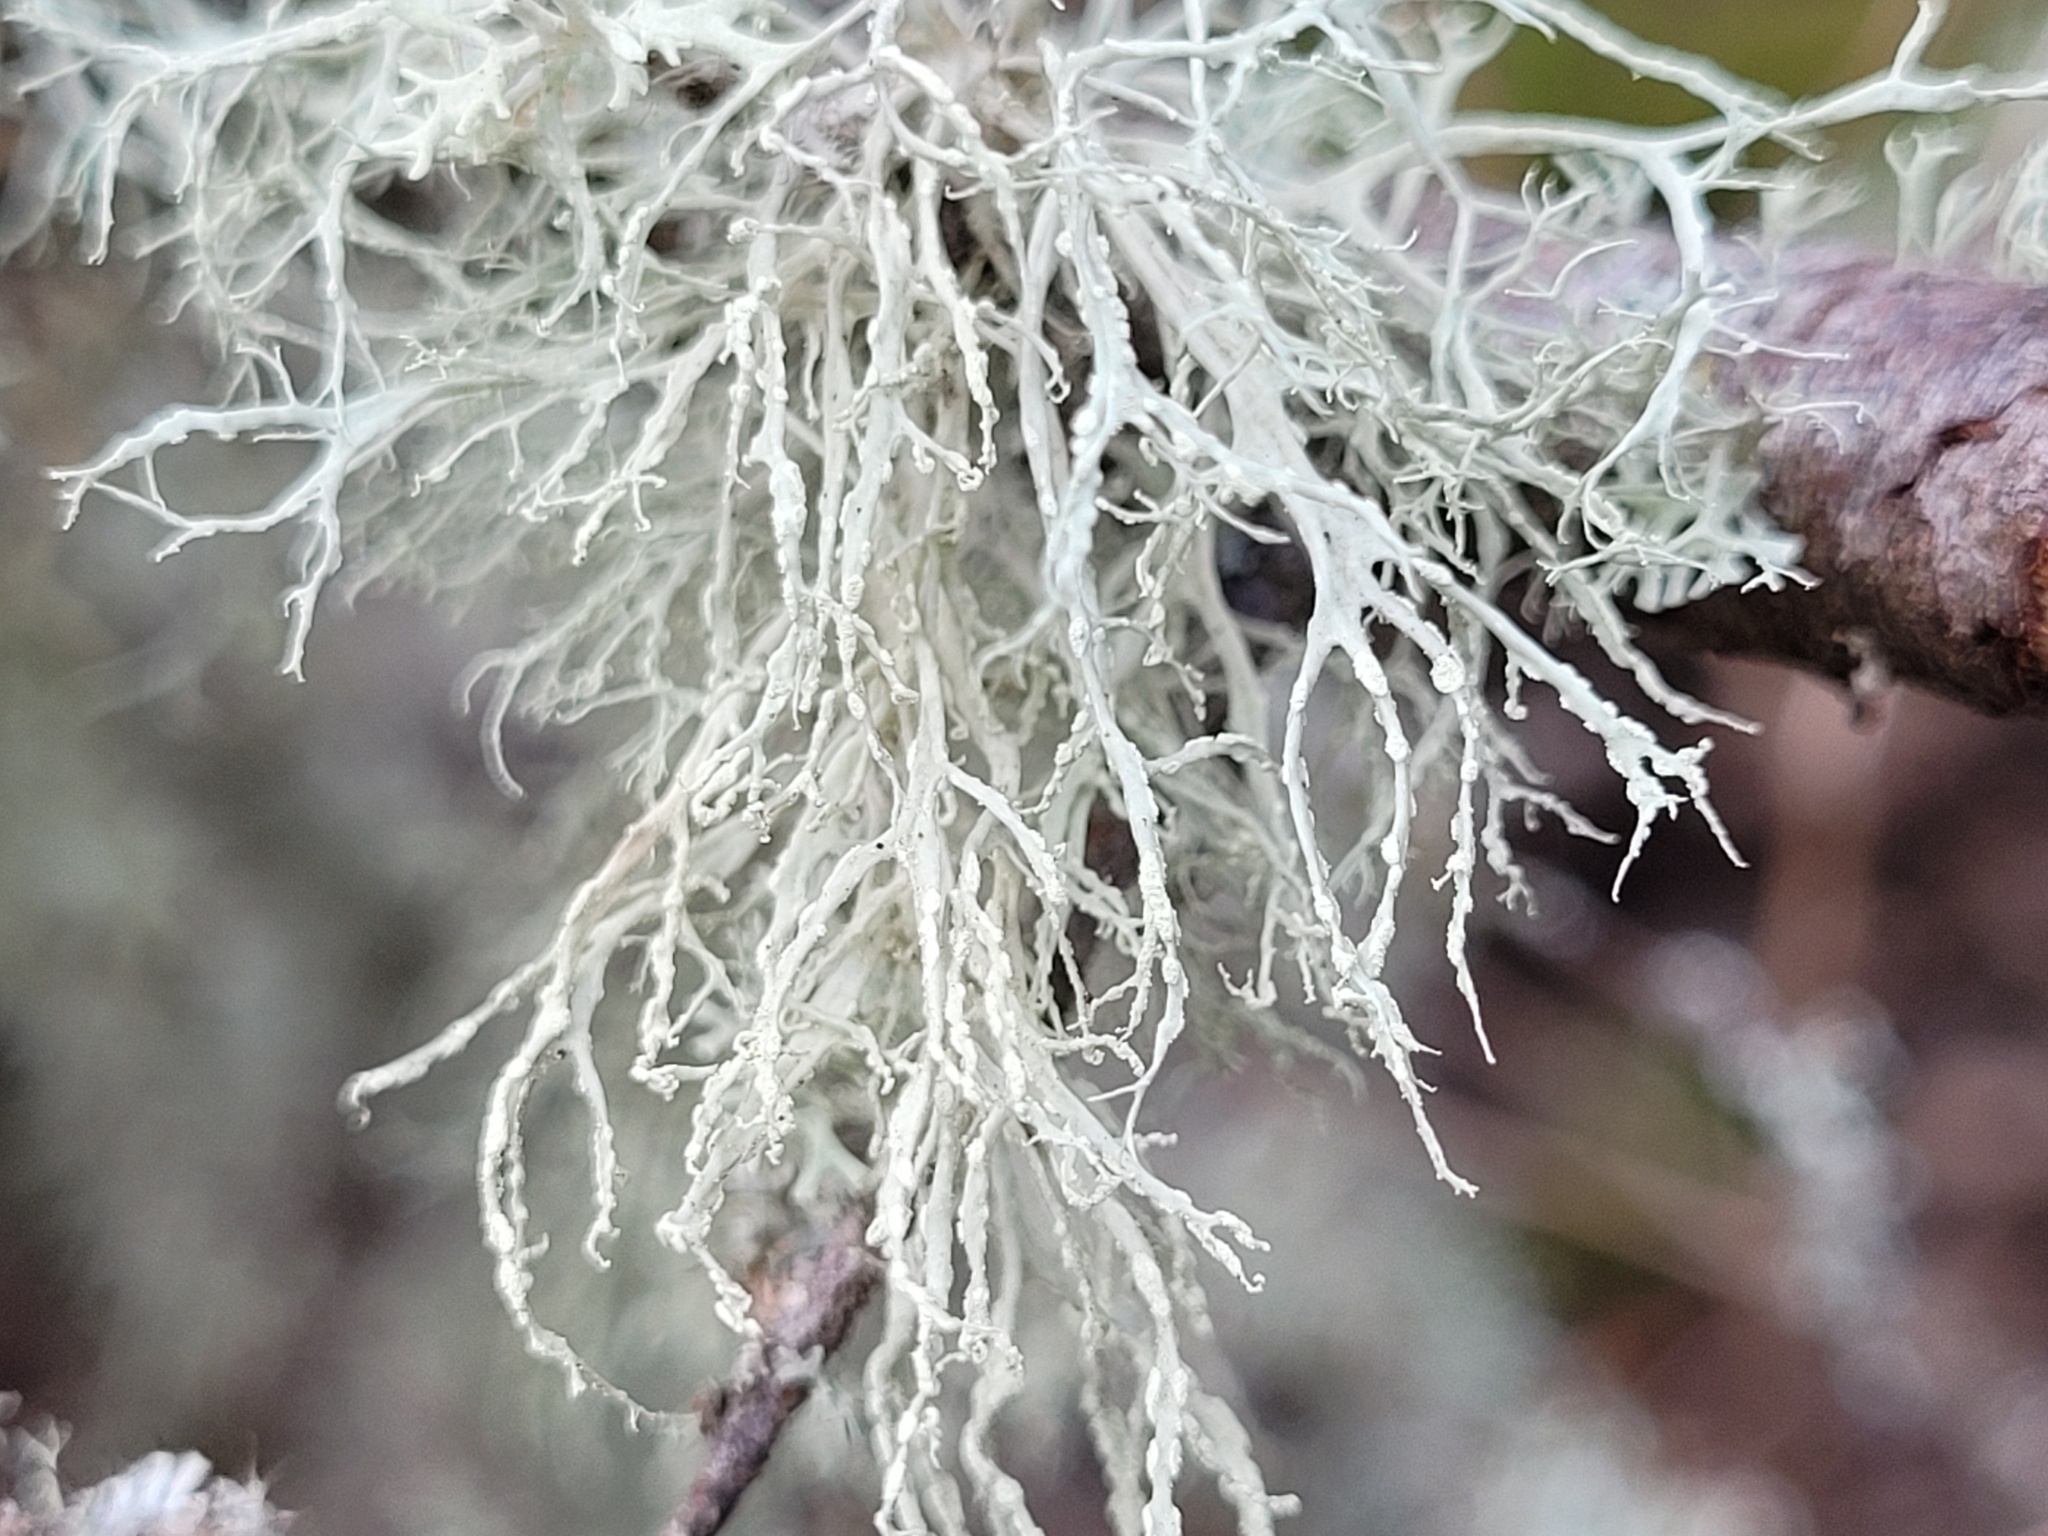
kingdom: Fungi
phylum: Ascomycota
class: Lecanoromycetes
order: Lecanorales
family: Ramalinaceae
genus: Ramalina
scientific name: Ramalina farinacea
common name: Farinose cartilage lichen
